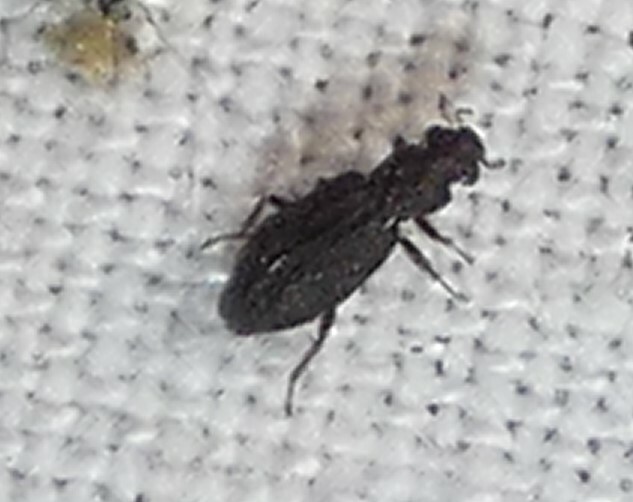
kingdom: Animalia
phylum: Arthropoda
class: Insecta
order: Coleoptera
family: Hydrochidae
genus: Hydrochus
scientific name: Hydrochus
